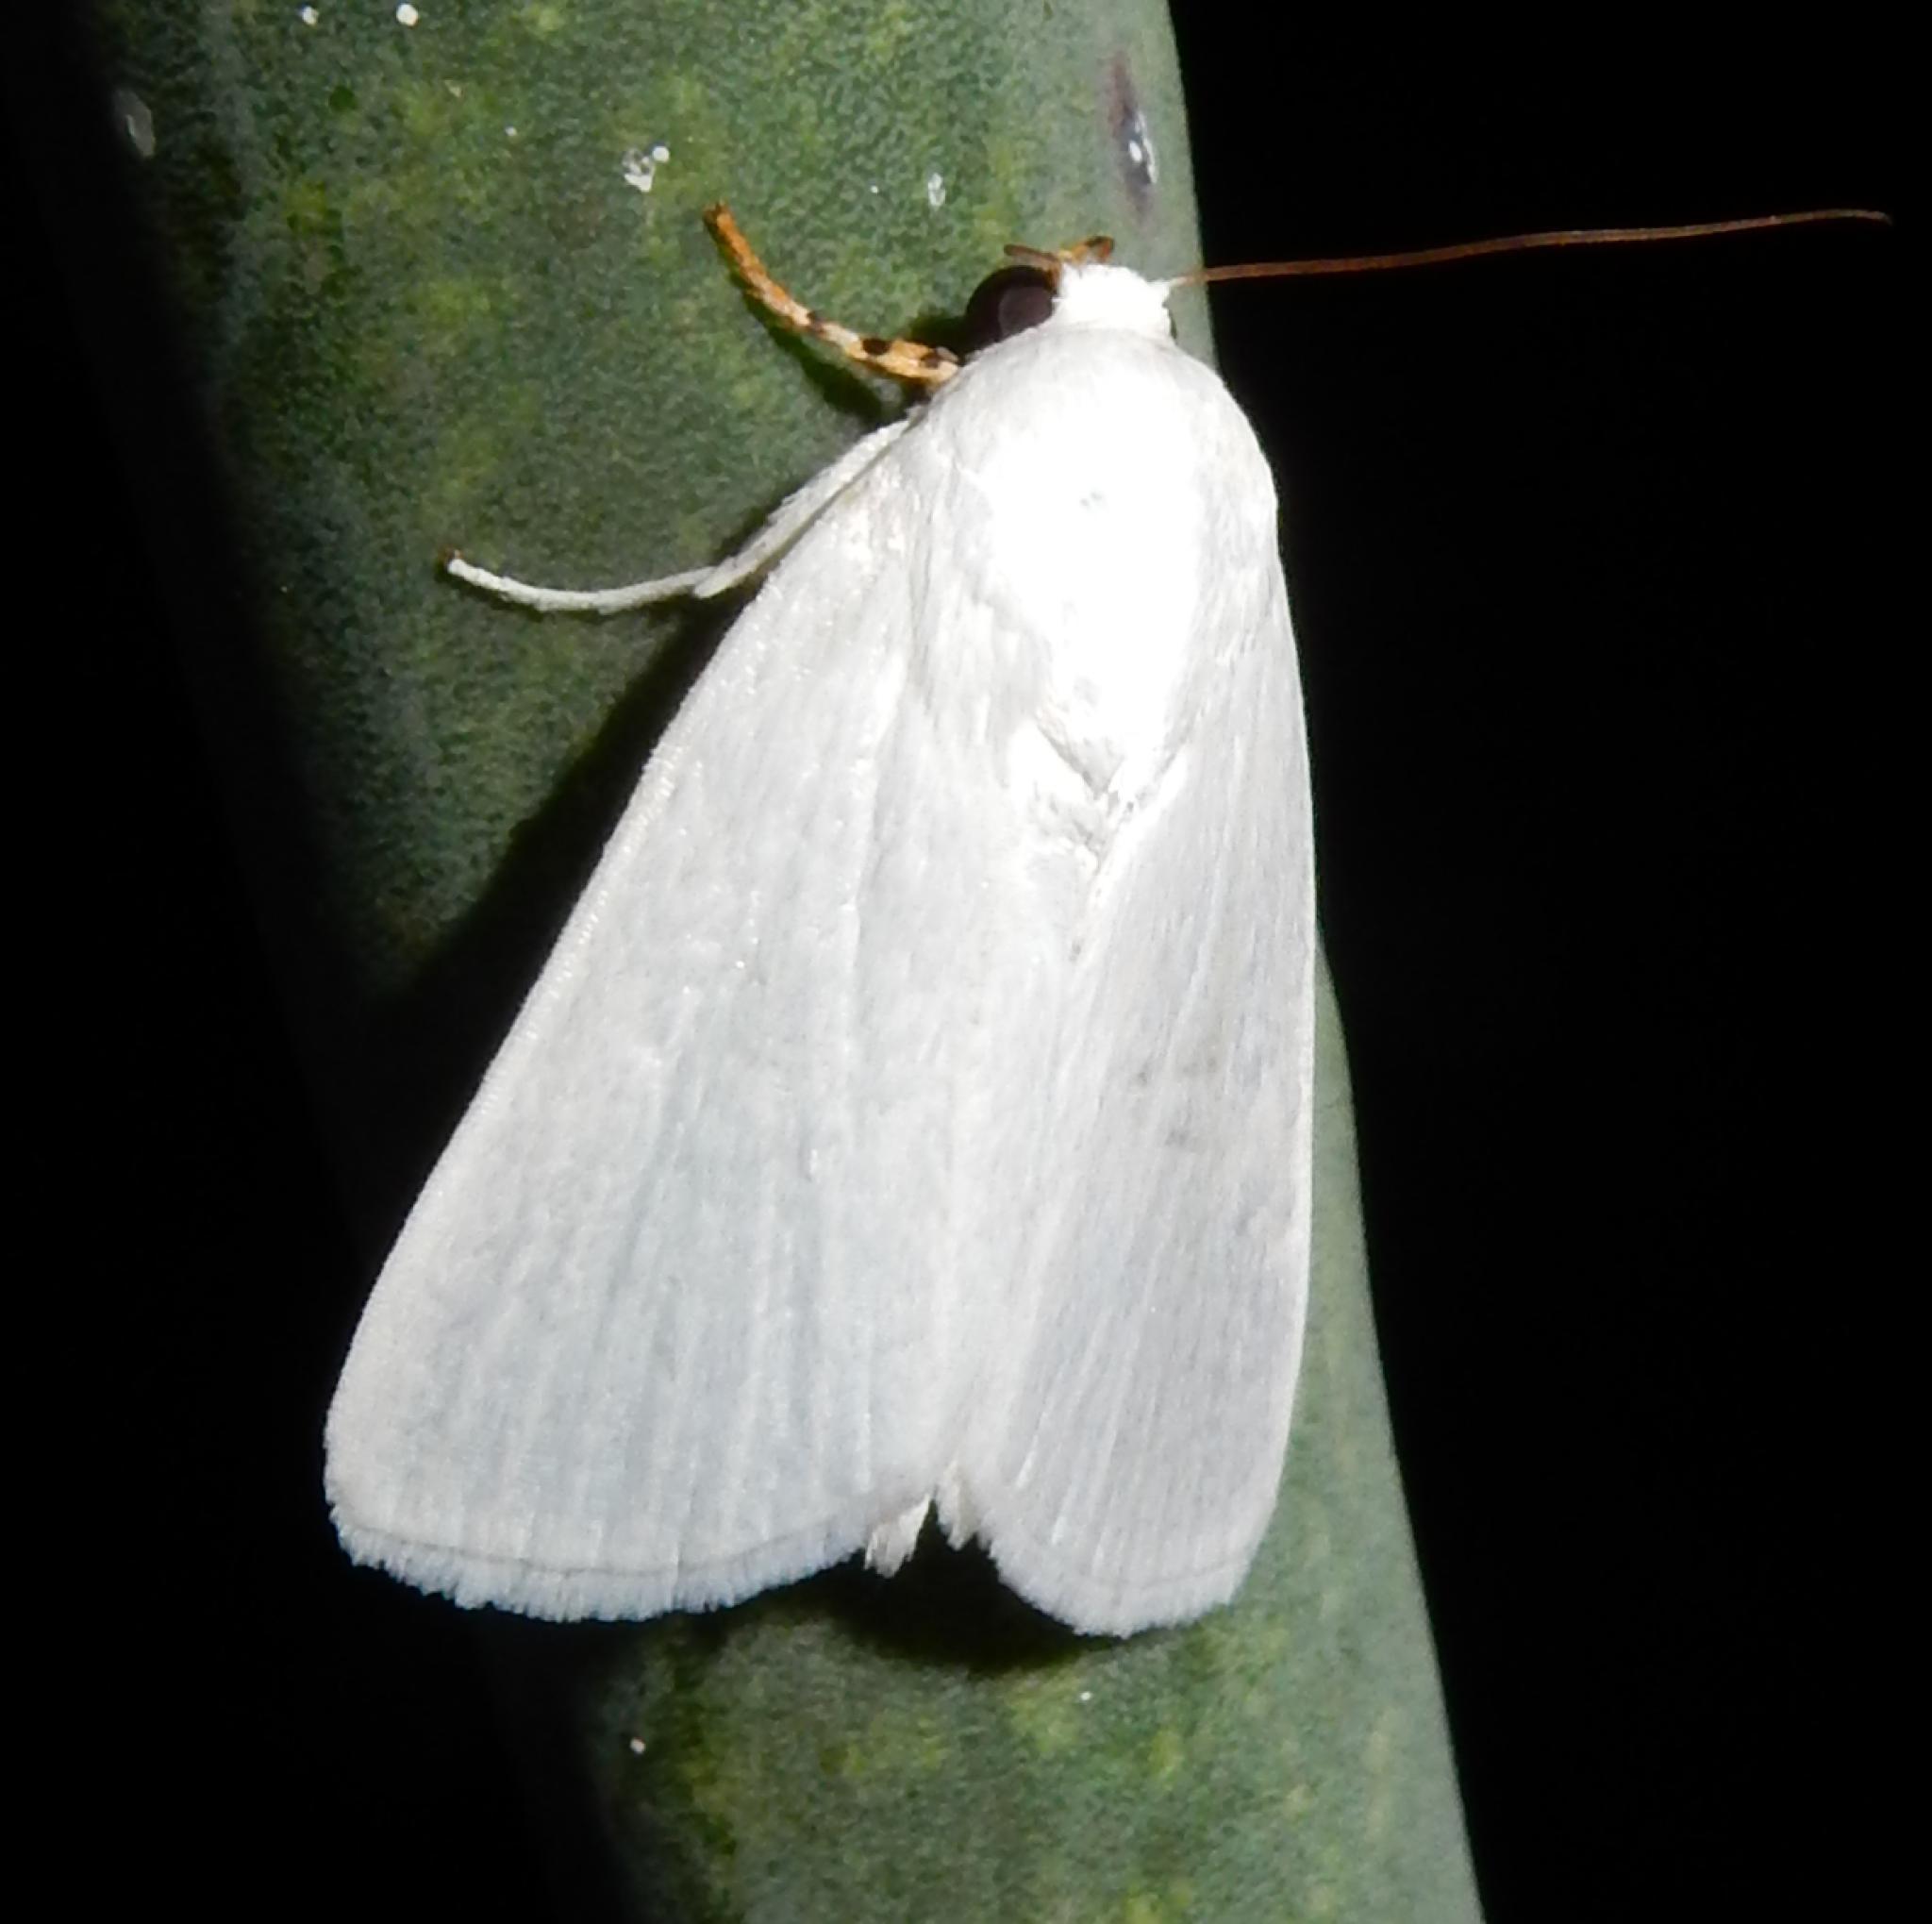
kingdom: Animalia
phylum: Arthropoda
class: Insecta
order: Lepidoptera
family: Noctuidae
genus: Chasmina
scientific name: Chasmina tibialis
